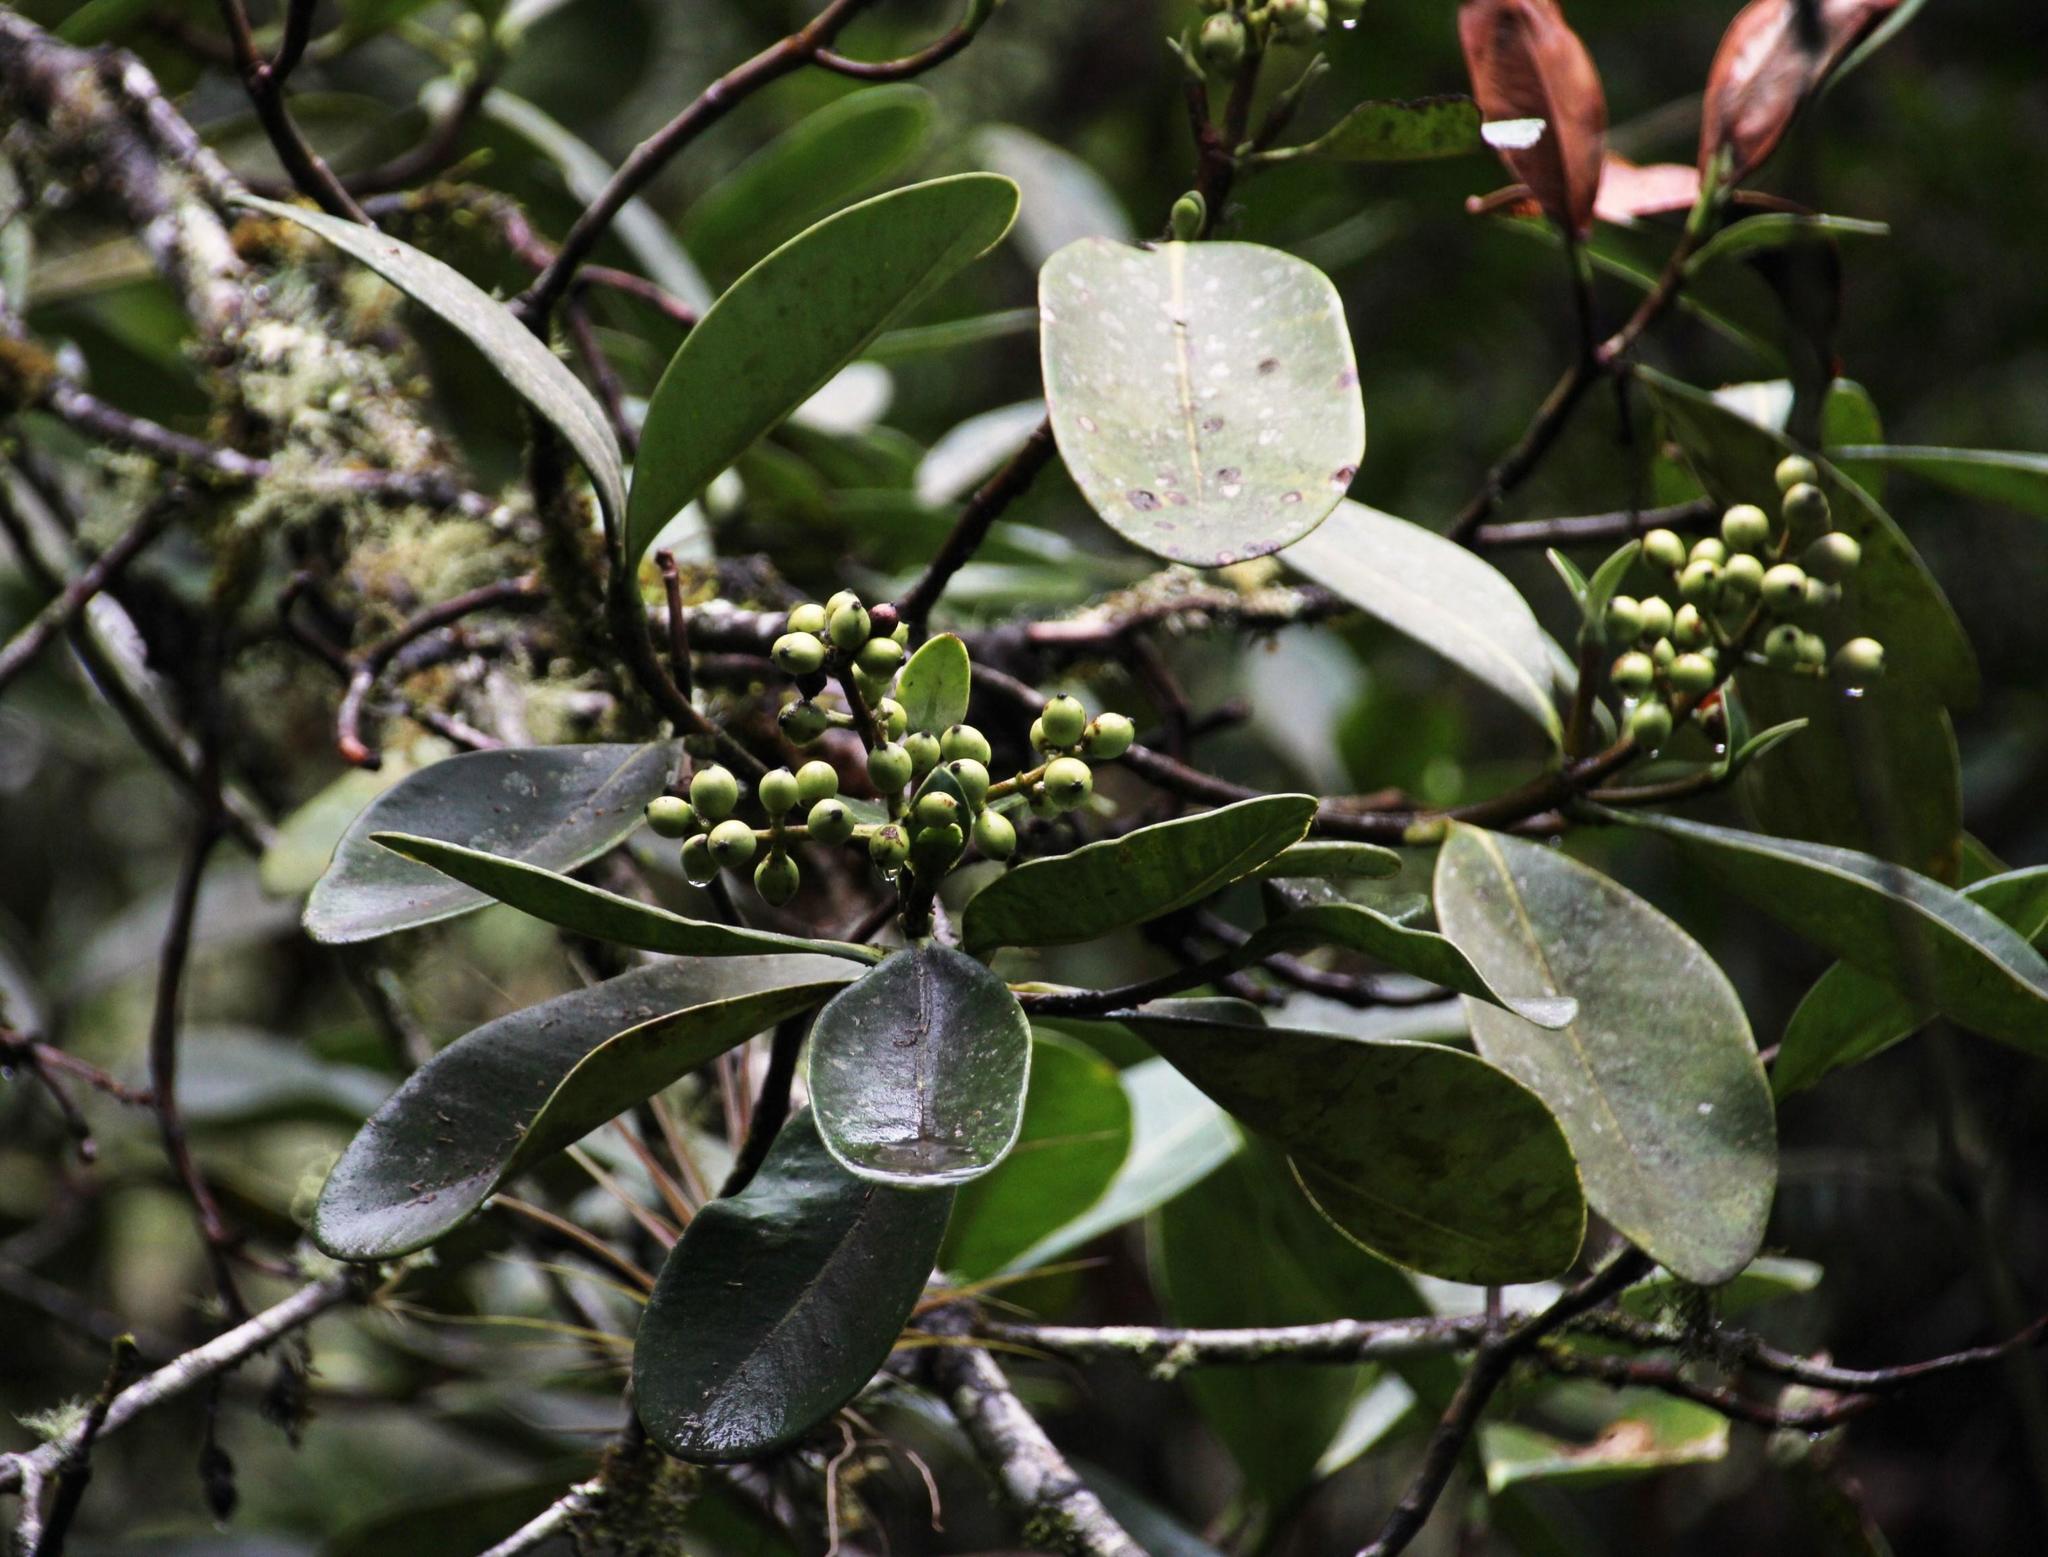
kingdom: Plantae
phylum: Tracheophyta
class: Magnoliopsida
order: Malpighiales
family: Clusiaceae
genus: Clusia
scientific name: Clusia ducu
